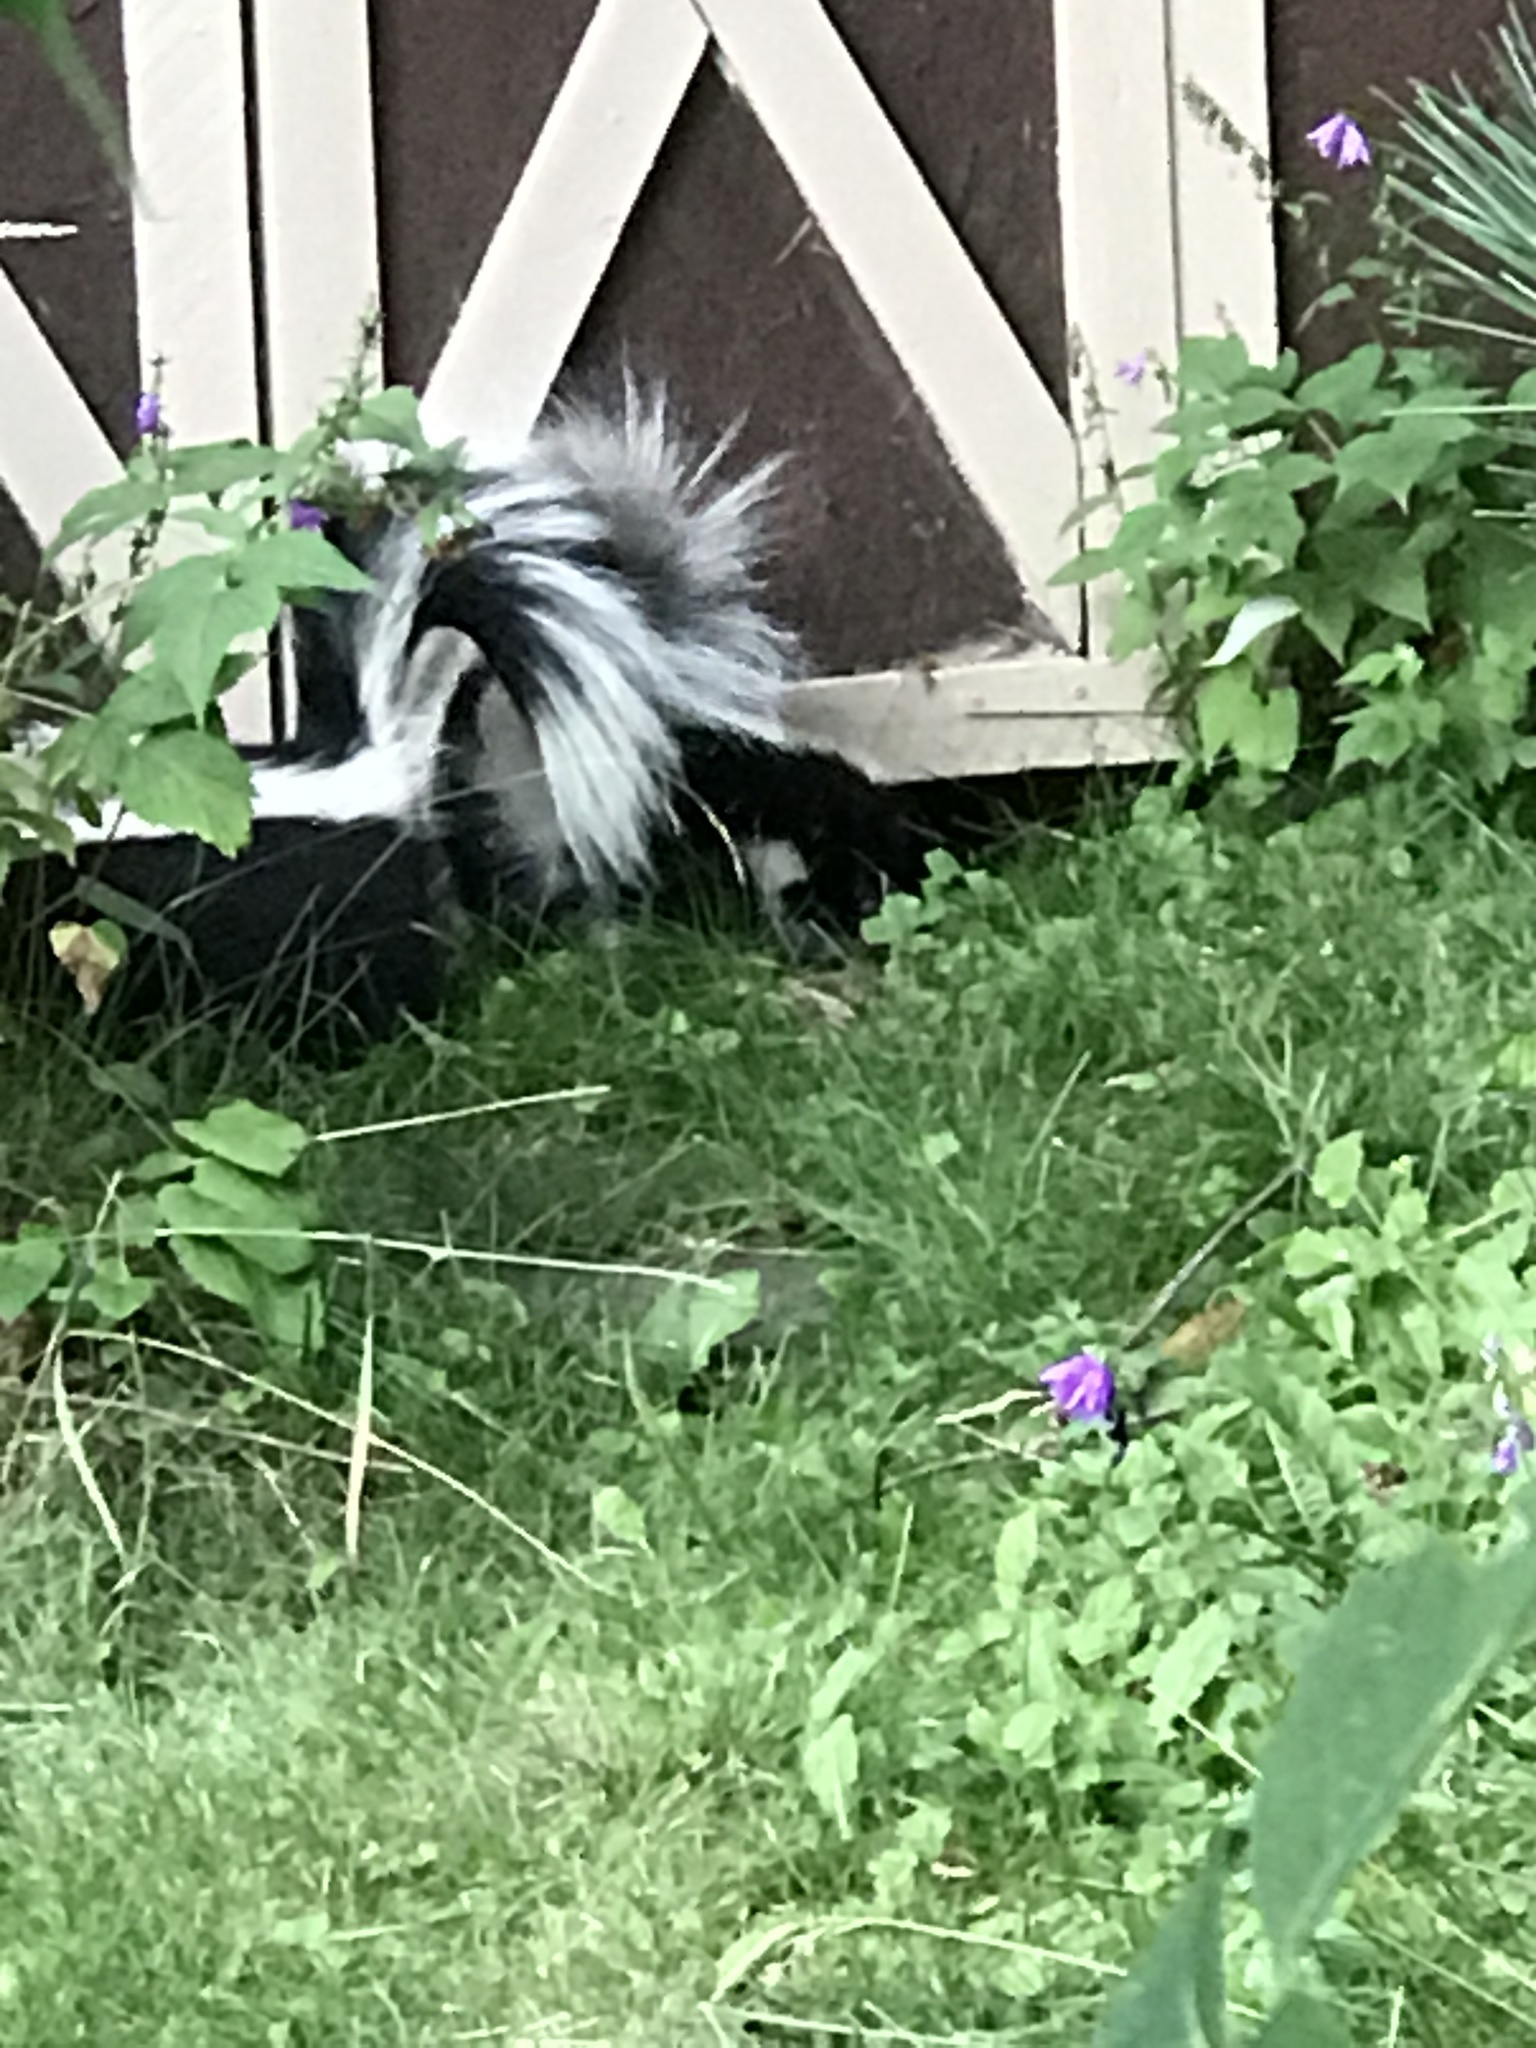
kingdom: Animalia
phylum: Chordata
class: Mammalia
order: Carnivora
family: Mephitidae
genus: Mephitis
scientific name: Mephitis mephitis
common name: Striped skunk
